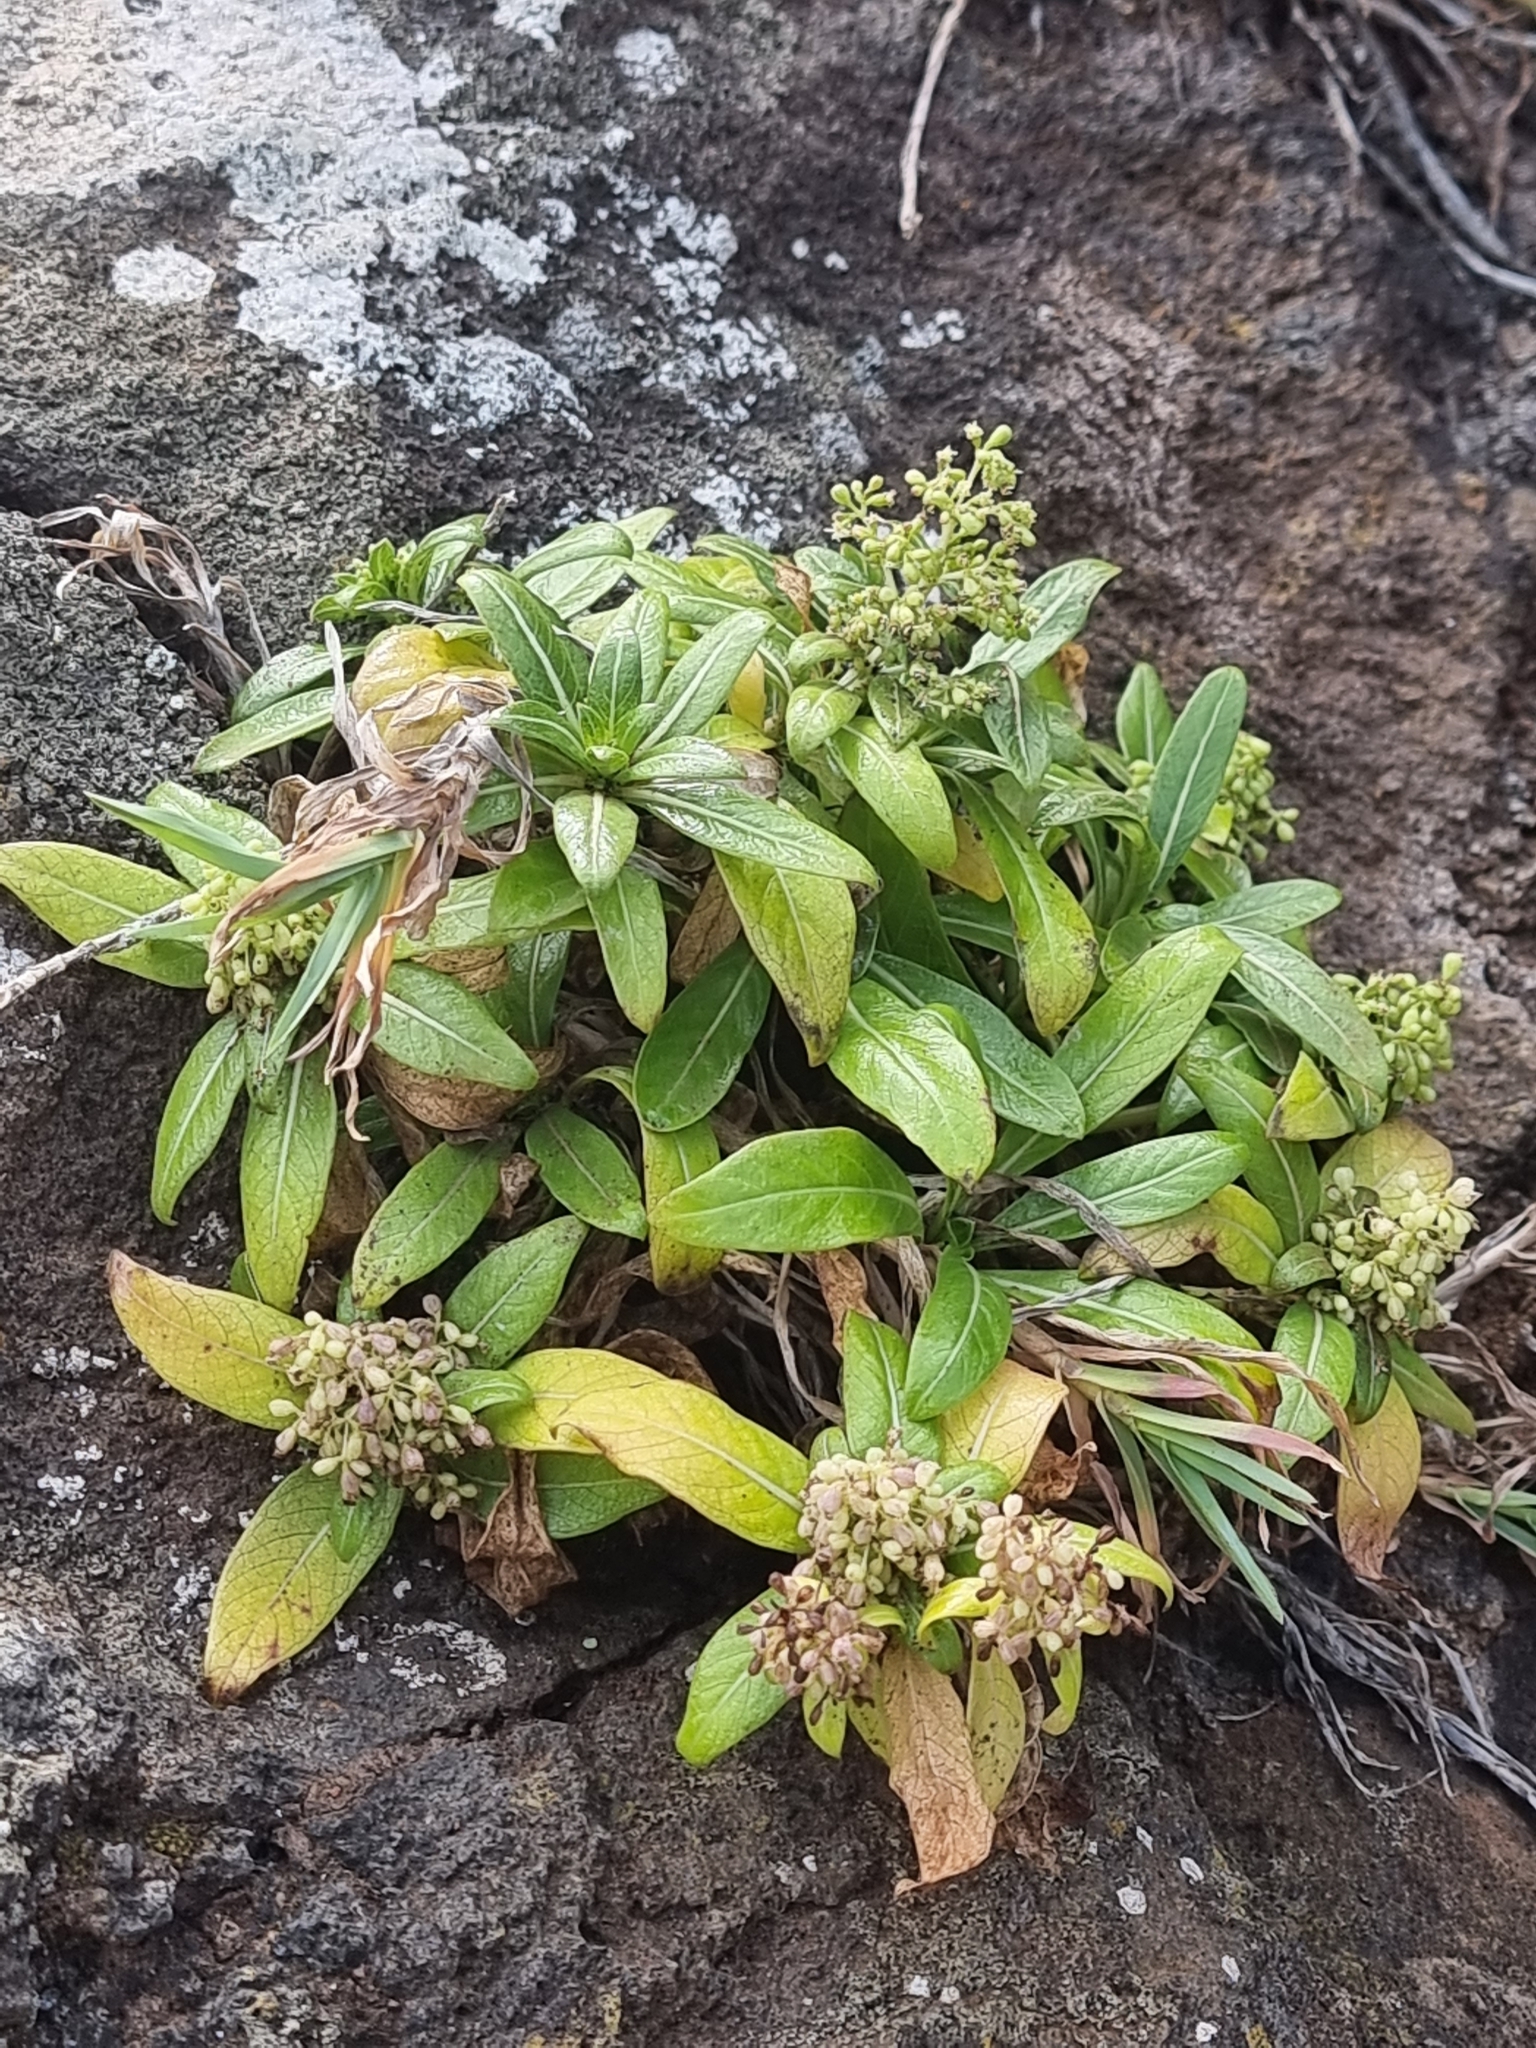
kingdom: Plantae
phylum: Tracheophyta
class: Magnoliopsida
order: Gentianales
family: Rubiaceae
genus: Phyllis
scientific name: Phyllis nobla
